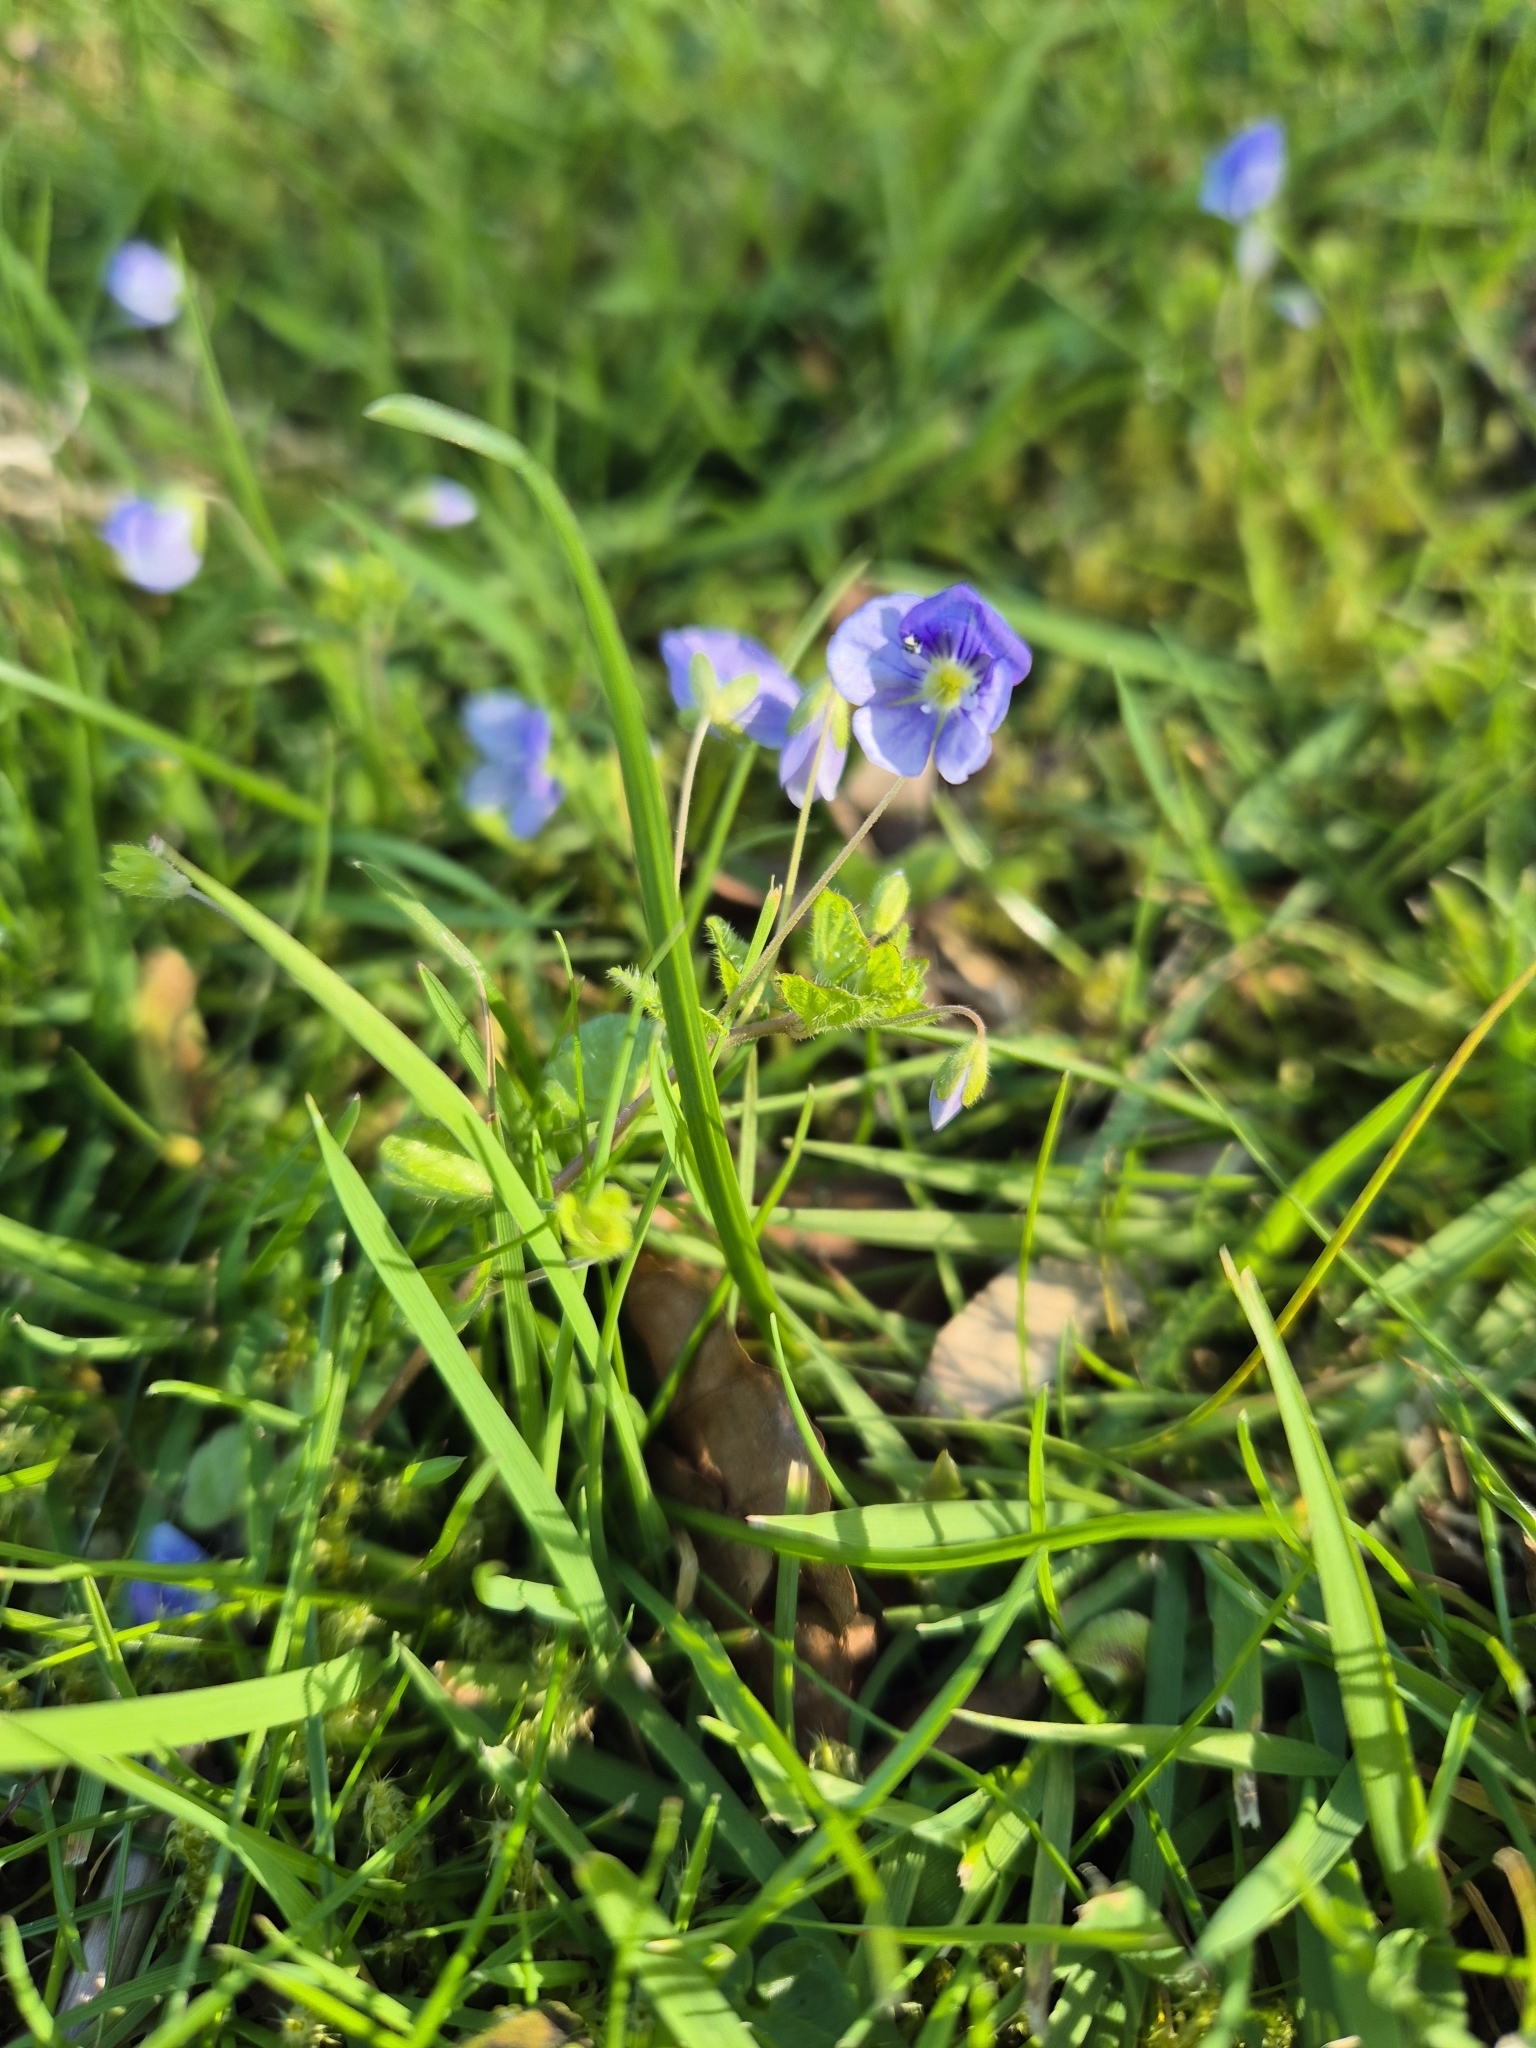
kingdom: Plantae
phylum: Tracheophyta
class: Magnoliopsida
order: Lamiales
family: Plantaginaceae
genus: Veronica
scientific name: Veronica filiformis
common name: Slender speedwell
